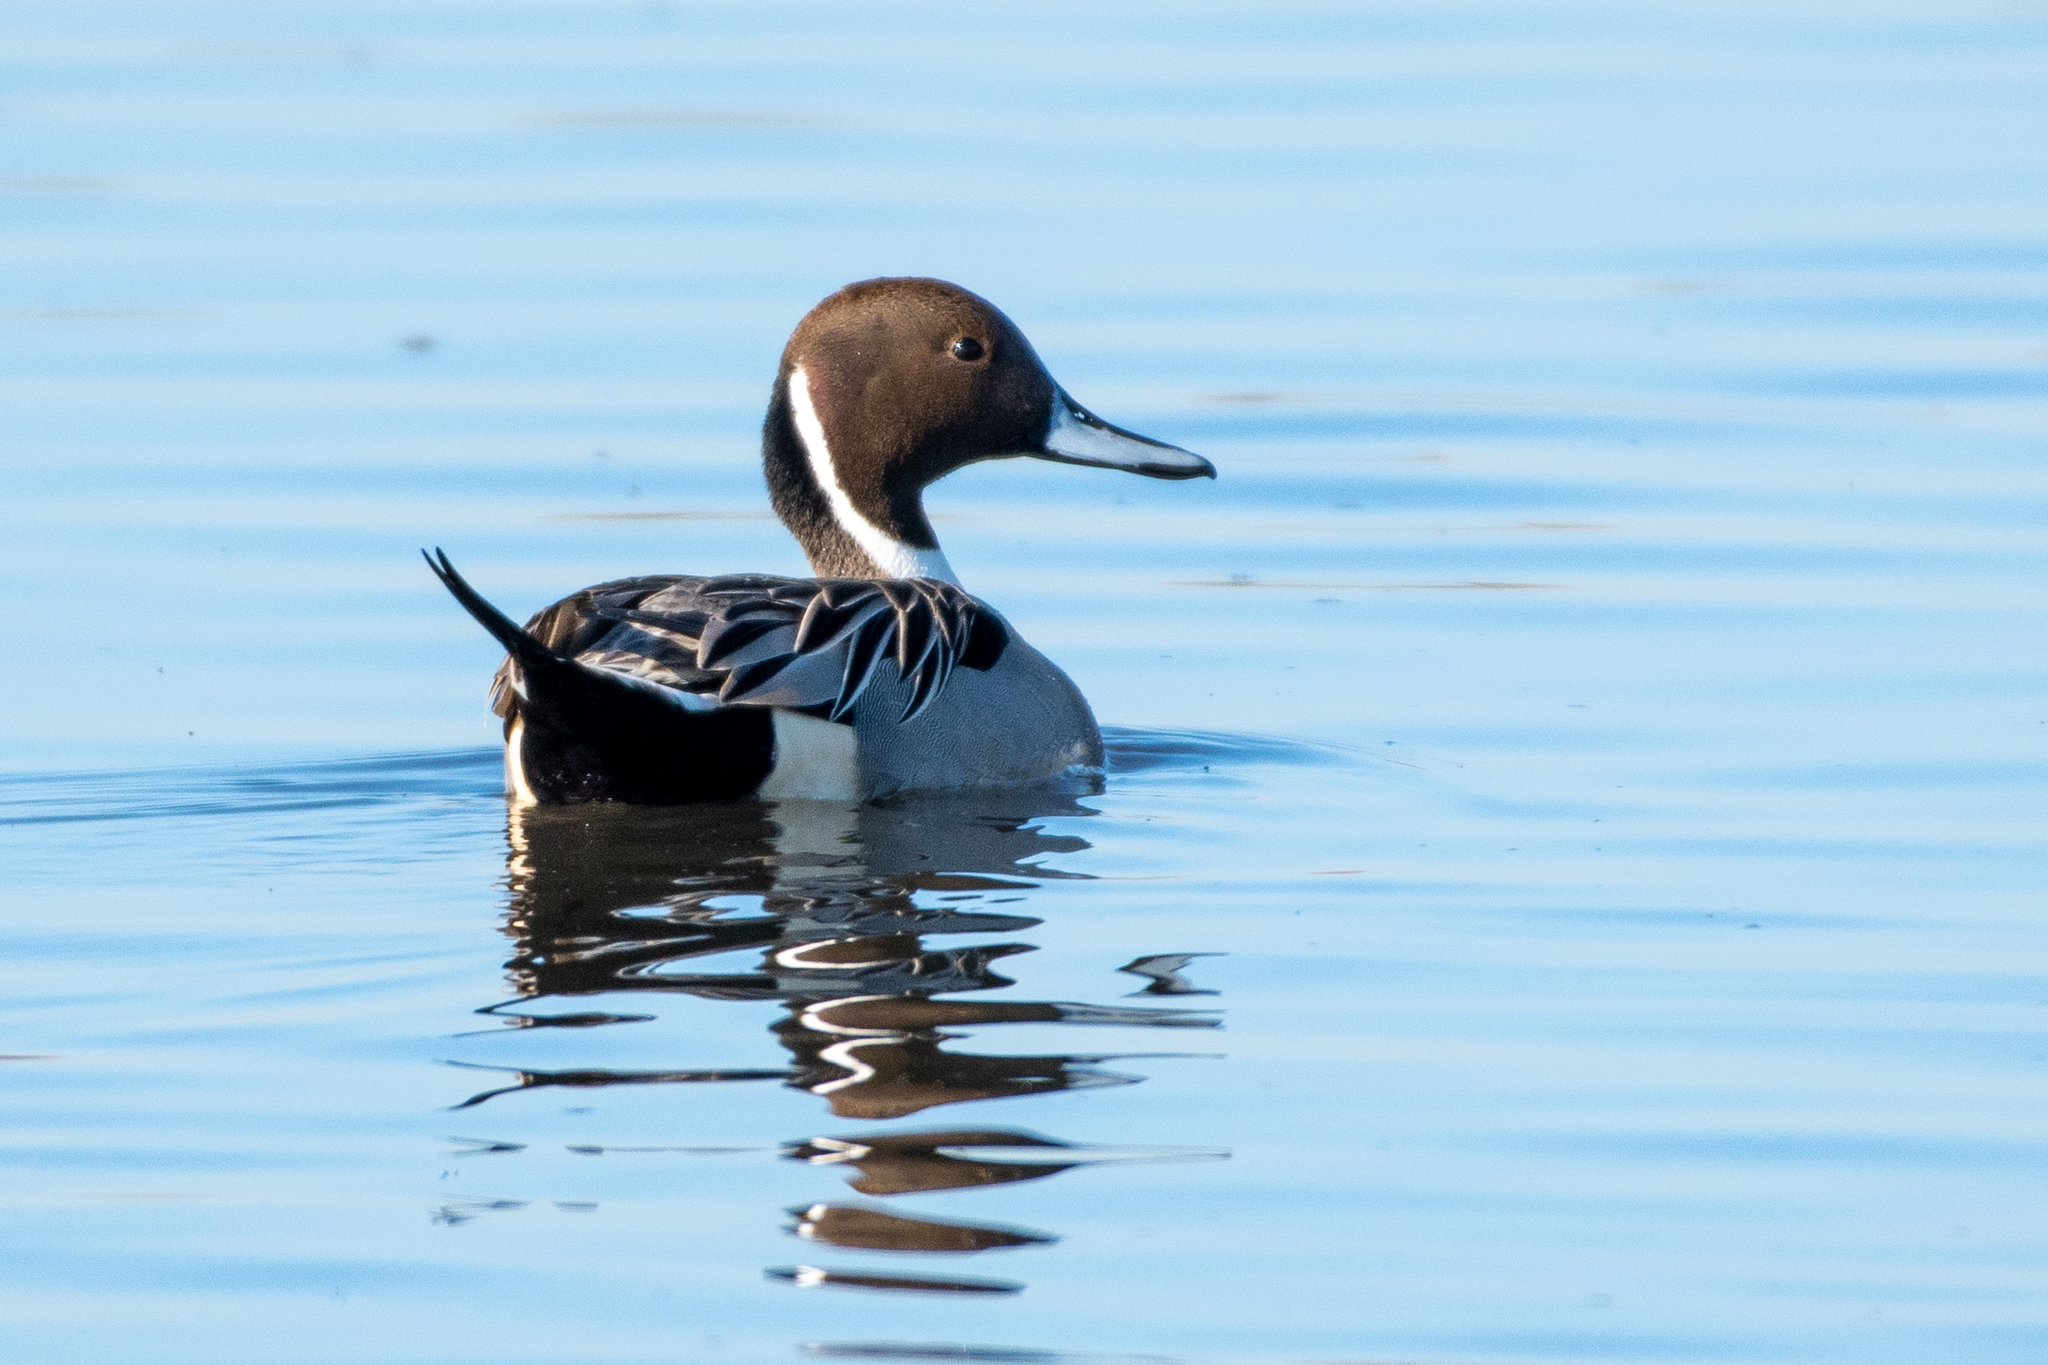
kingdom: Animalia
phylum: Chordata
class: Aves
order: Anseriformes
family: Anatidae
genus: Anas
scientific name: Anas acuta
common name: Northern pintail
